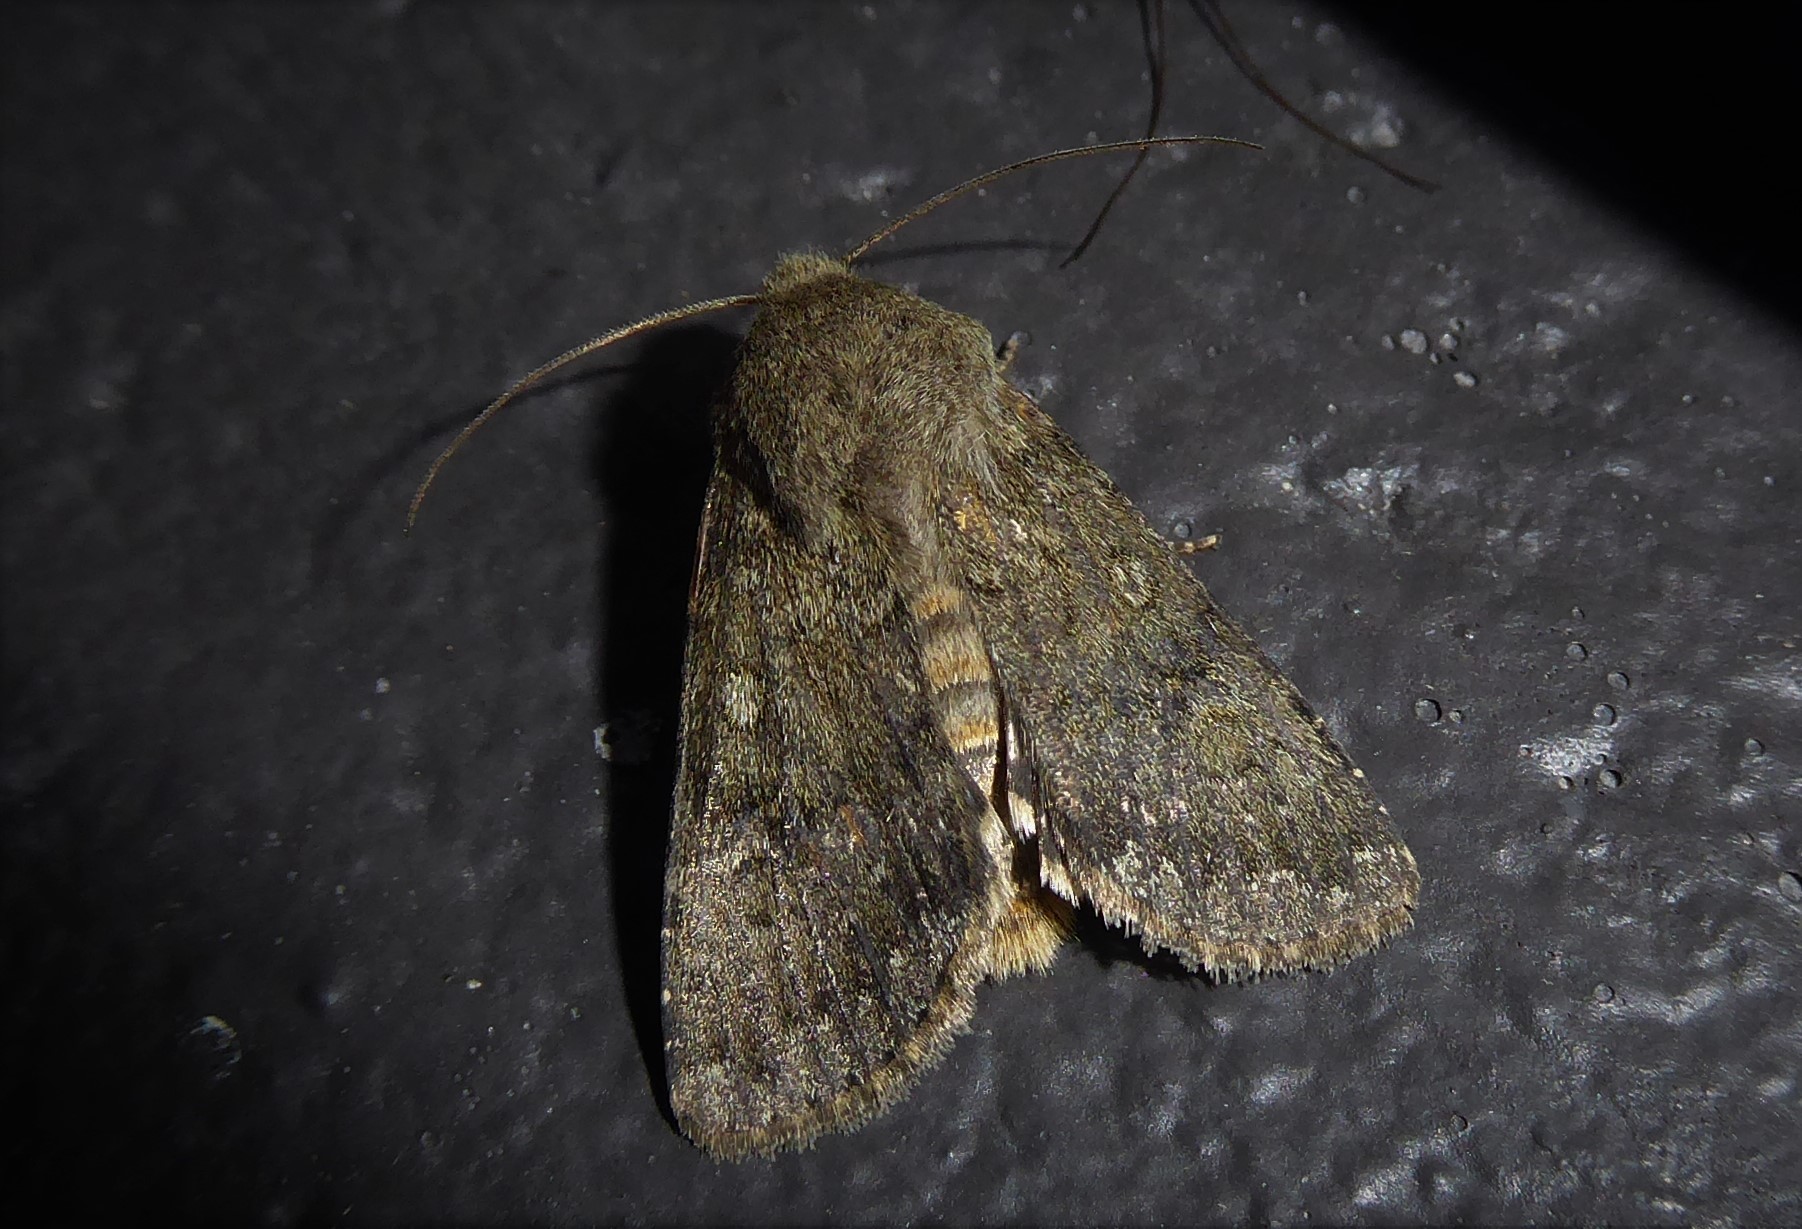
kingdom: Animalia
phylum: Arthropoda
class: Insecta
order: Lepidoptera
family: Noctuidae
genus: Ichneutica
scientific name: Ichneutica moderata
